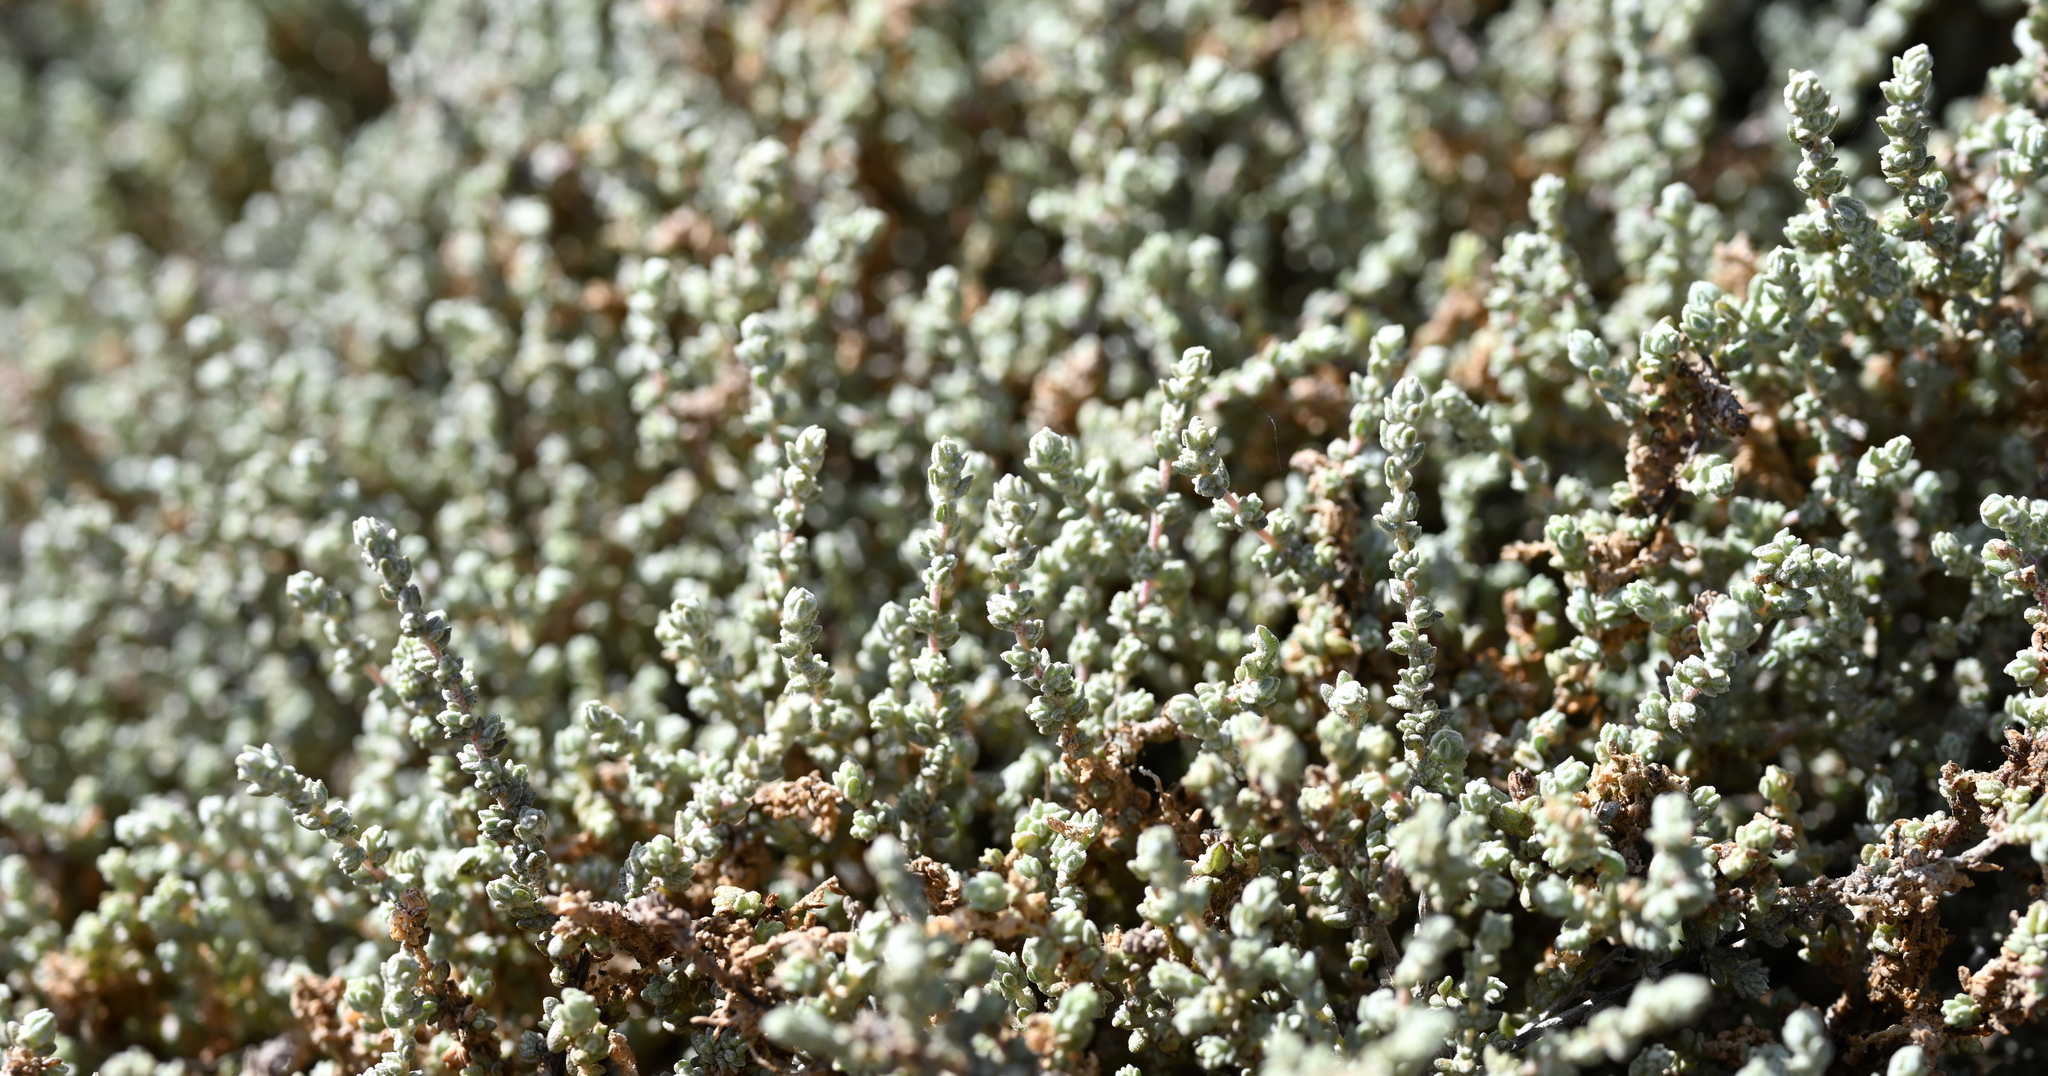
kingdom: Plantae
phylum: Tracheophyta
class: Magnoliopsida
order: Caryophyllales
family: Amaranthaceae
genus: Atriplex
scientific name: Atriplex julacea
